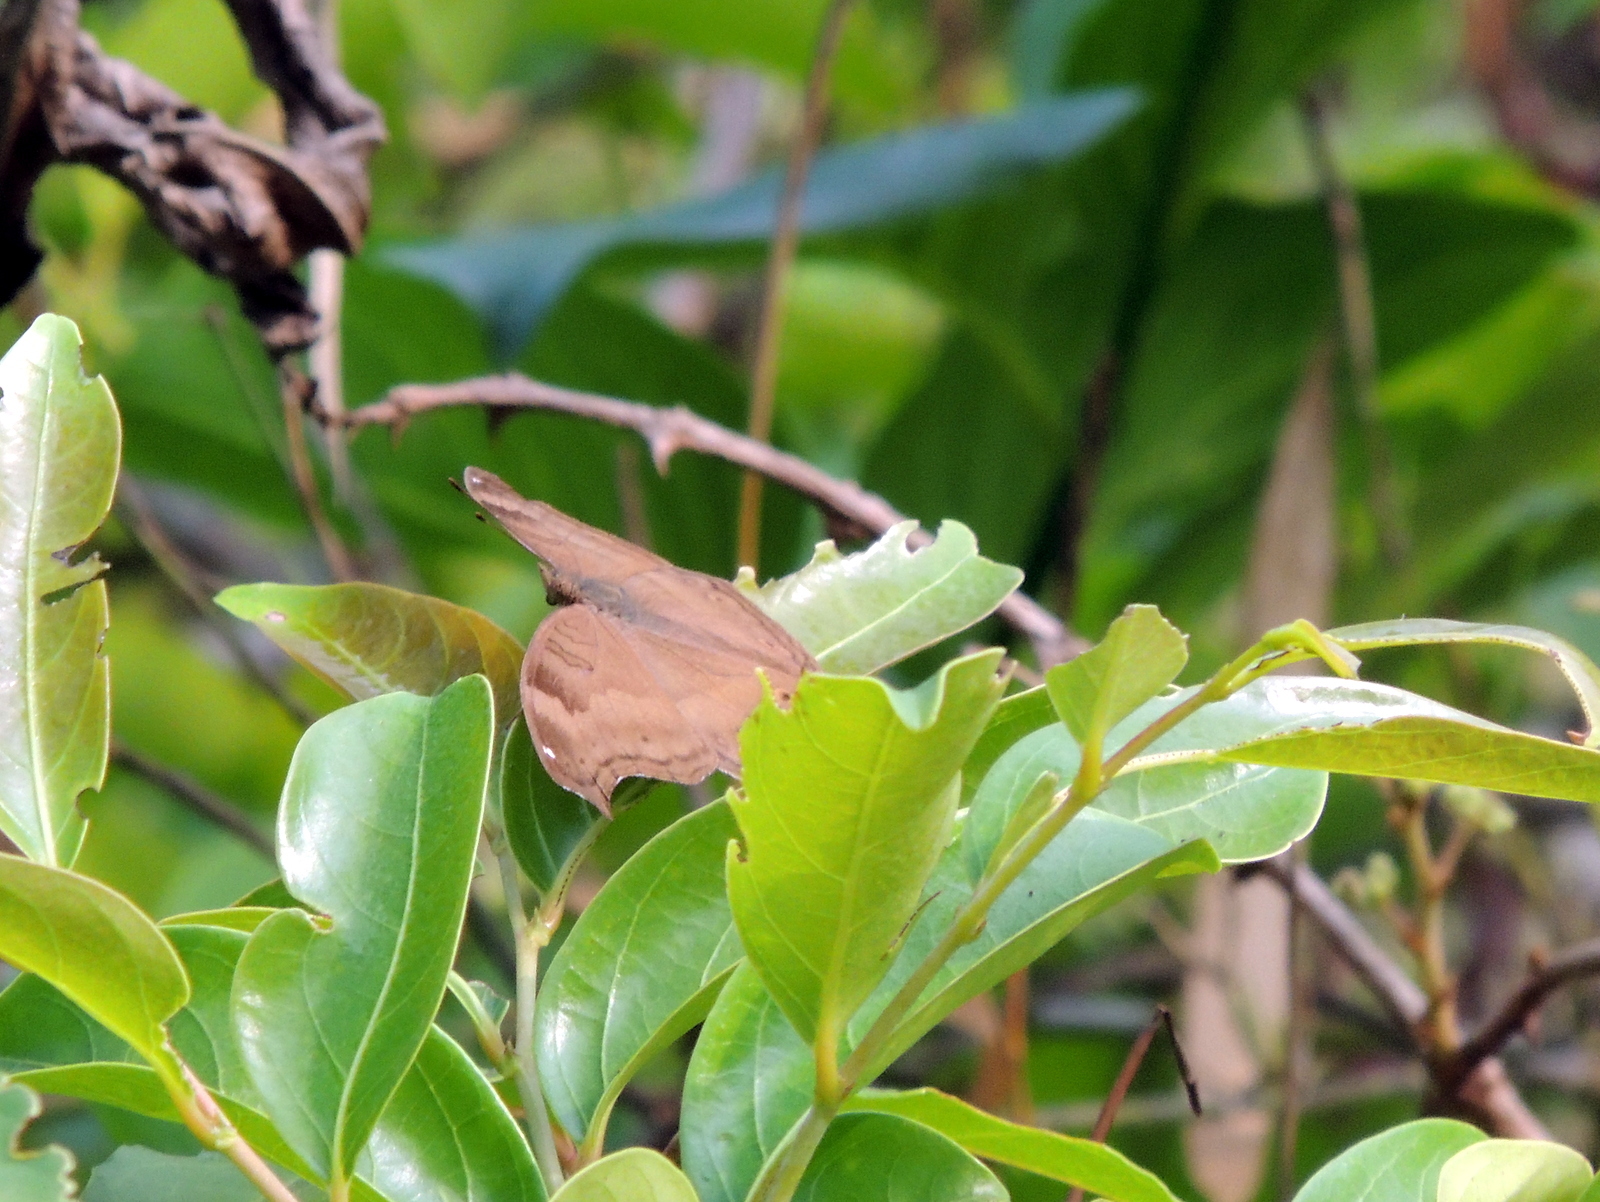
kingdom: Animalia
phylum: Arthropoda
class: Insecta
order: Lepidoptera
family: Nymphalidae
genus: Junonia
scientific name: Junonia iphita
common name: Chocolate pansy
